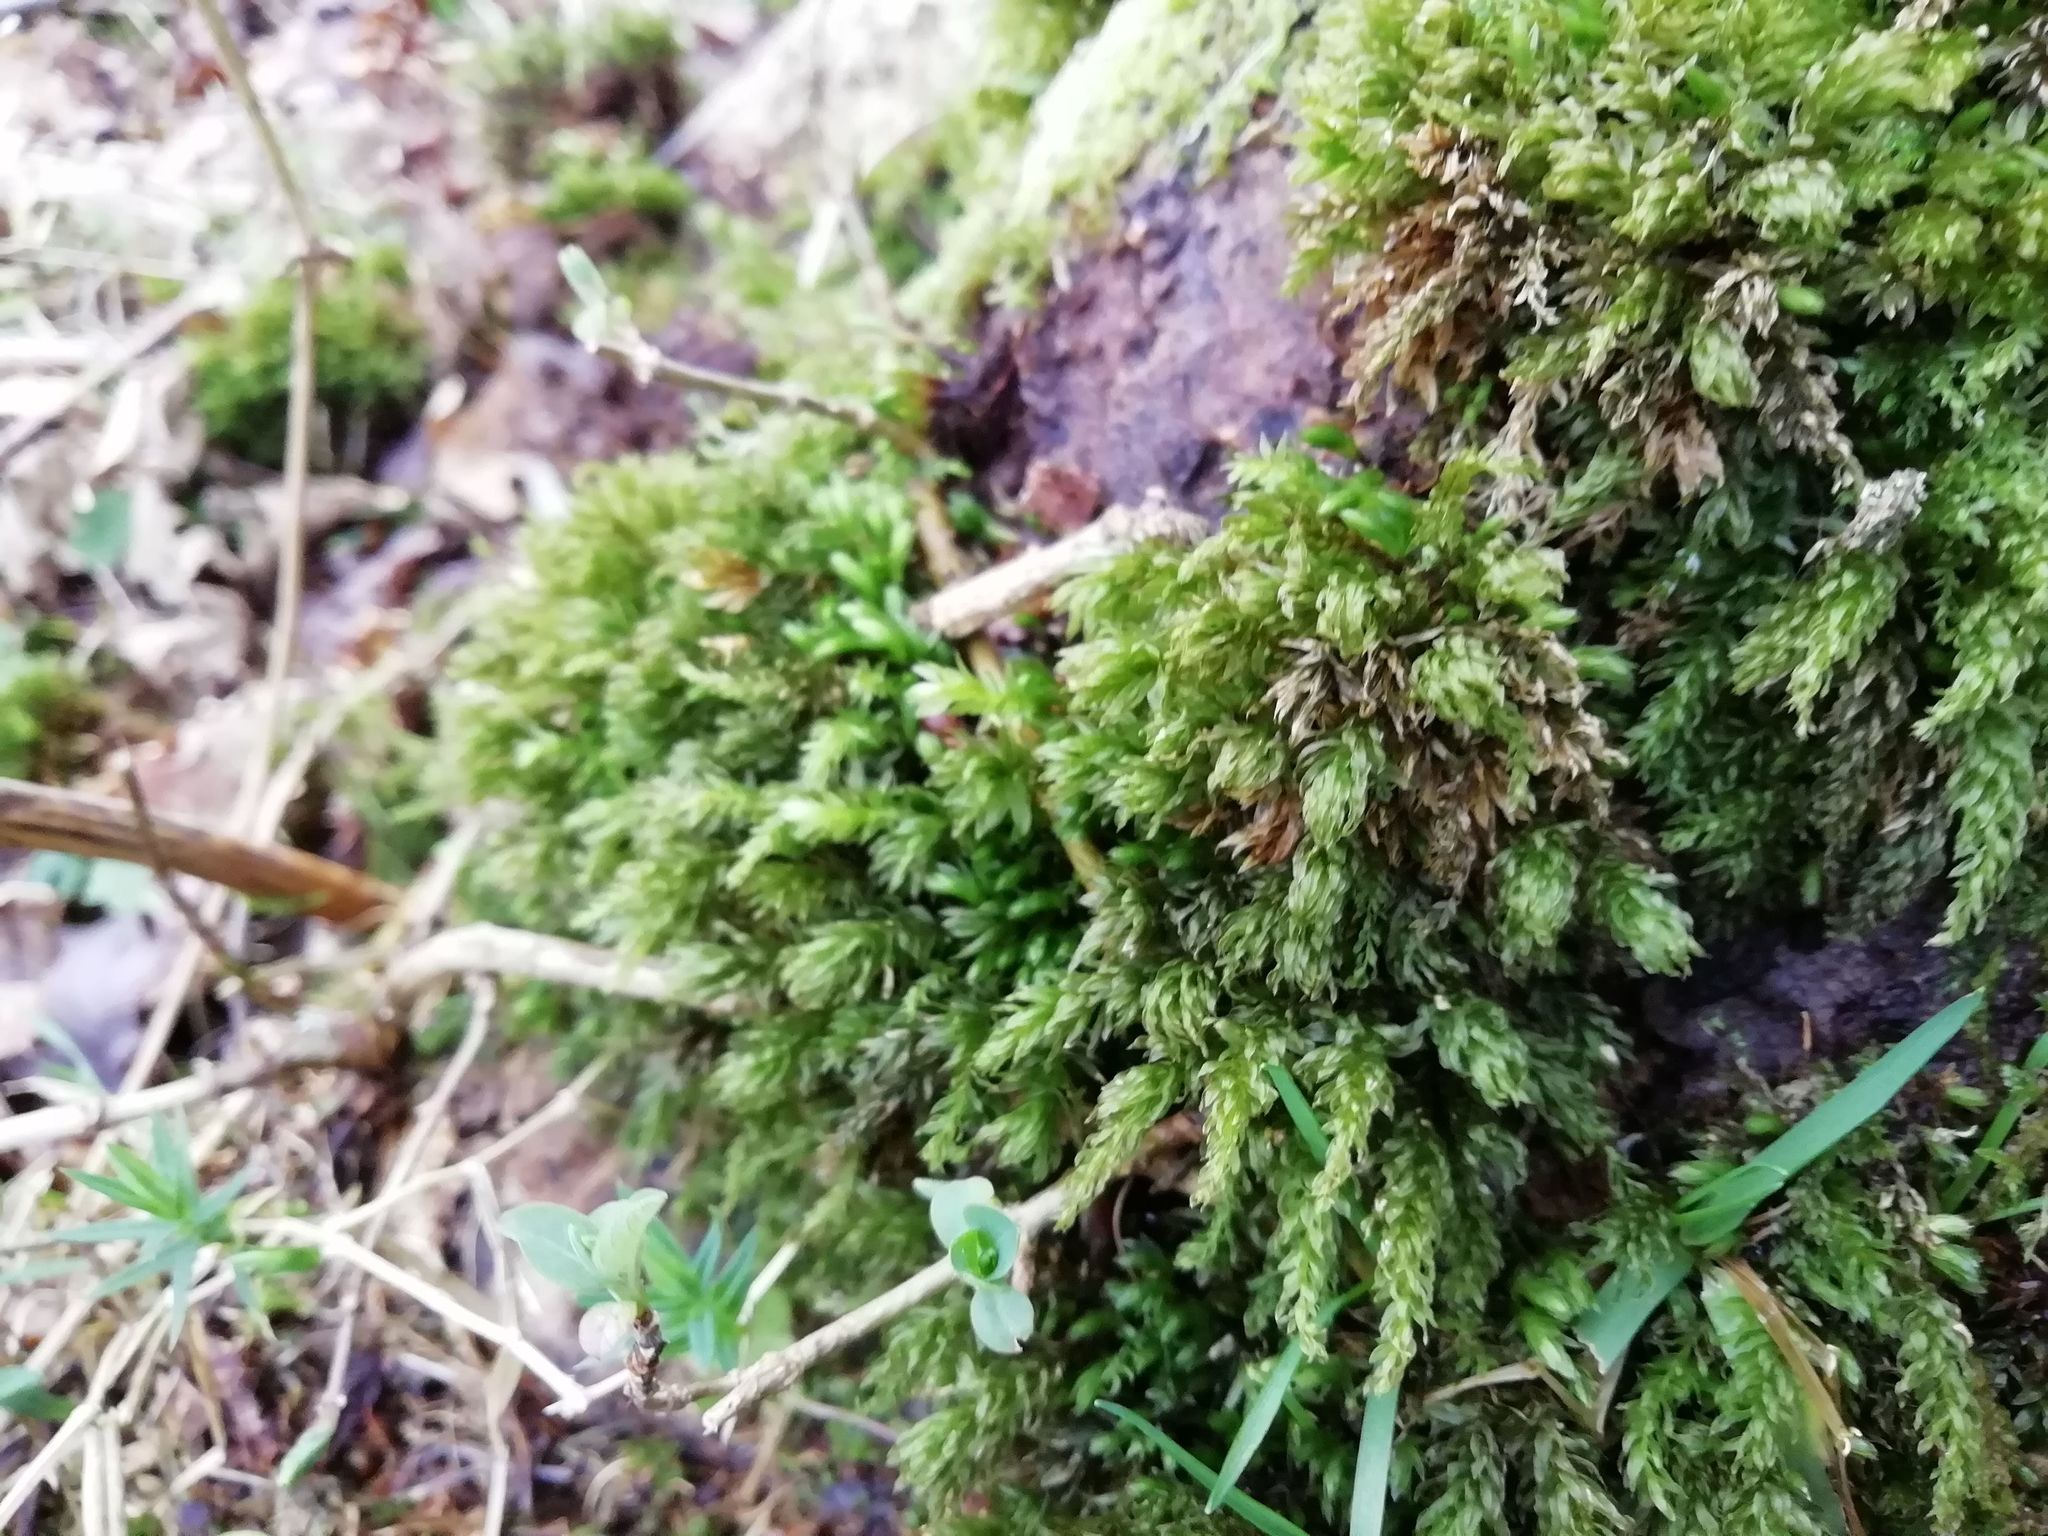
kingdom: Plantae
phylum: Bryophyta
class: Bryopsida
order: Bryales
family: Mniaceae
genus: Mnium
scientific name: Mnium hornum
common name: Swan's-neck leafy moss
